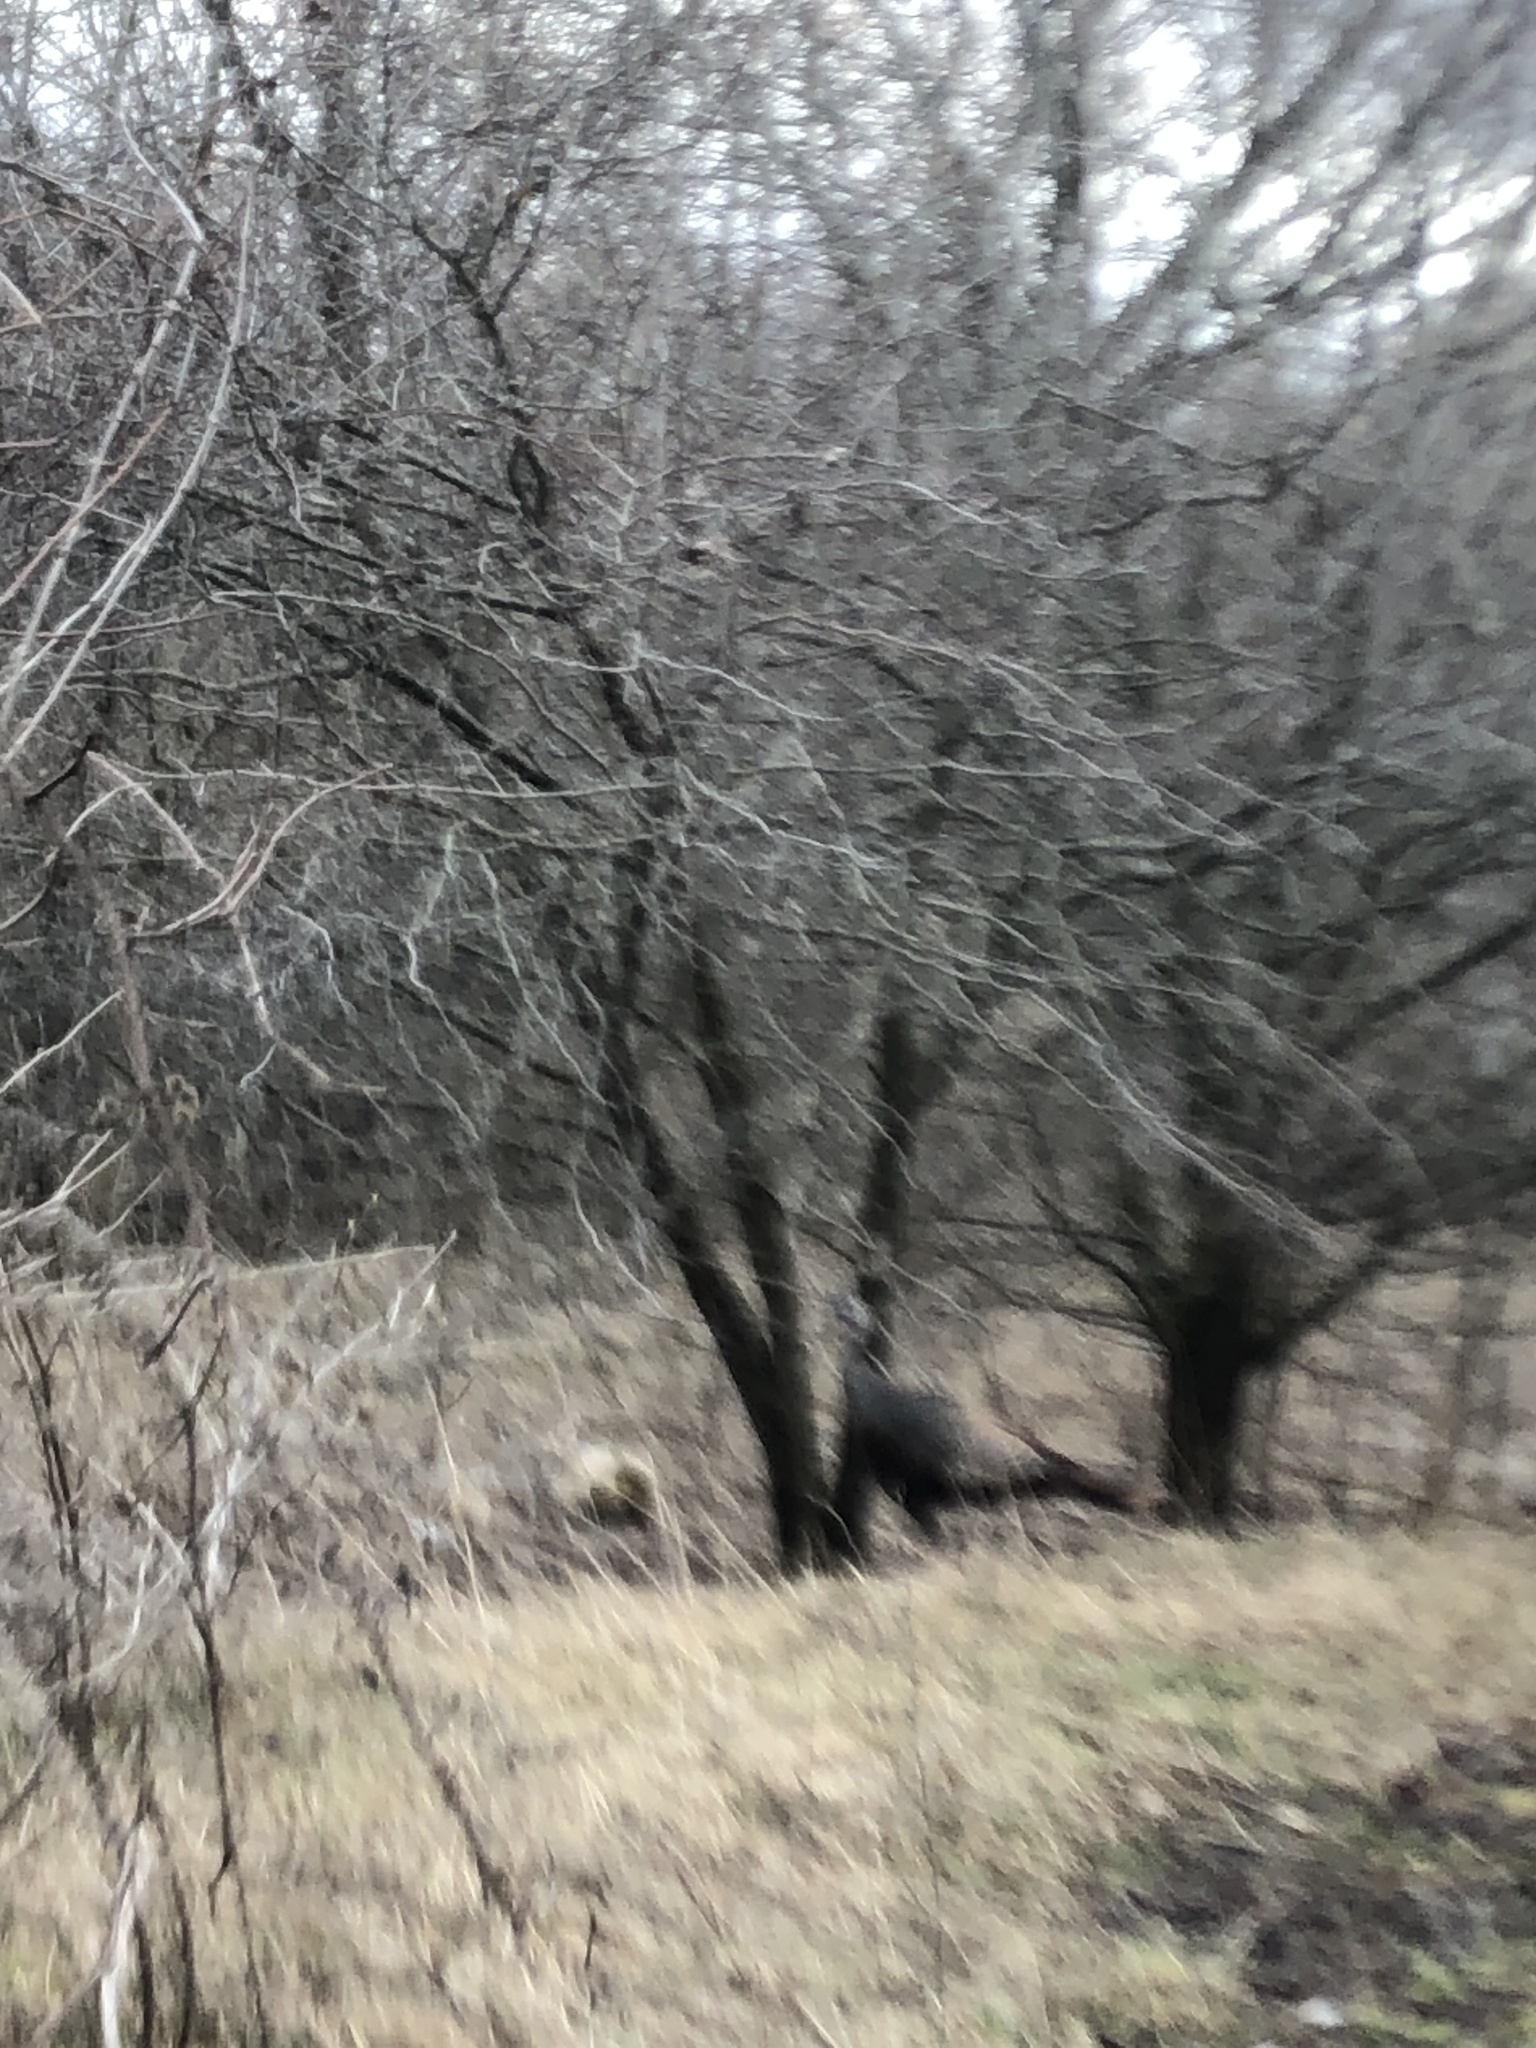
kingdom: Animalia
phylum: Chordata
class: Aves
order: Galliformes
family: Phasianidae
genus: Meleagris
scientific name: Meleagris gallopavo
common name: Wild turkey
